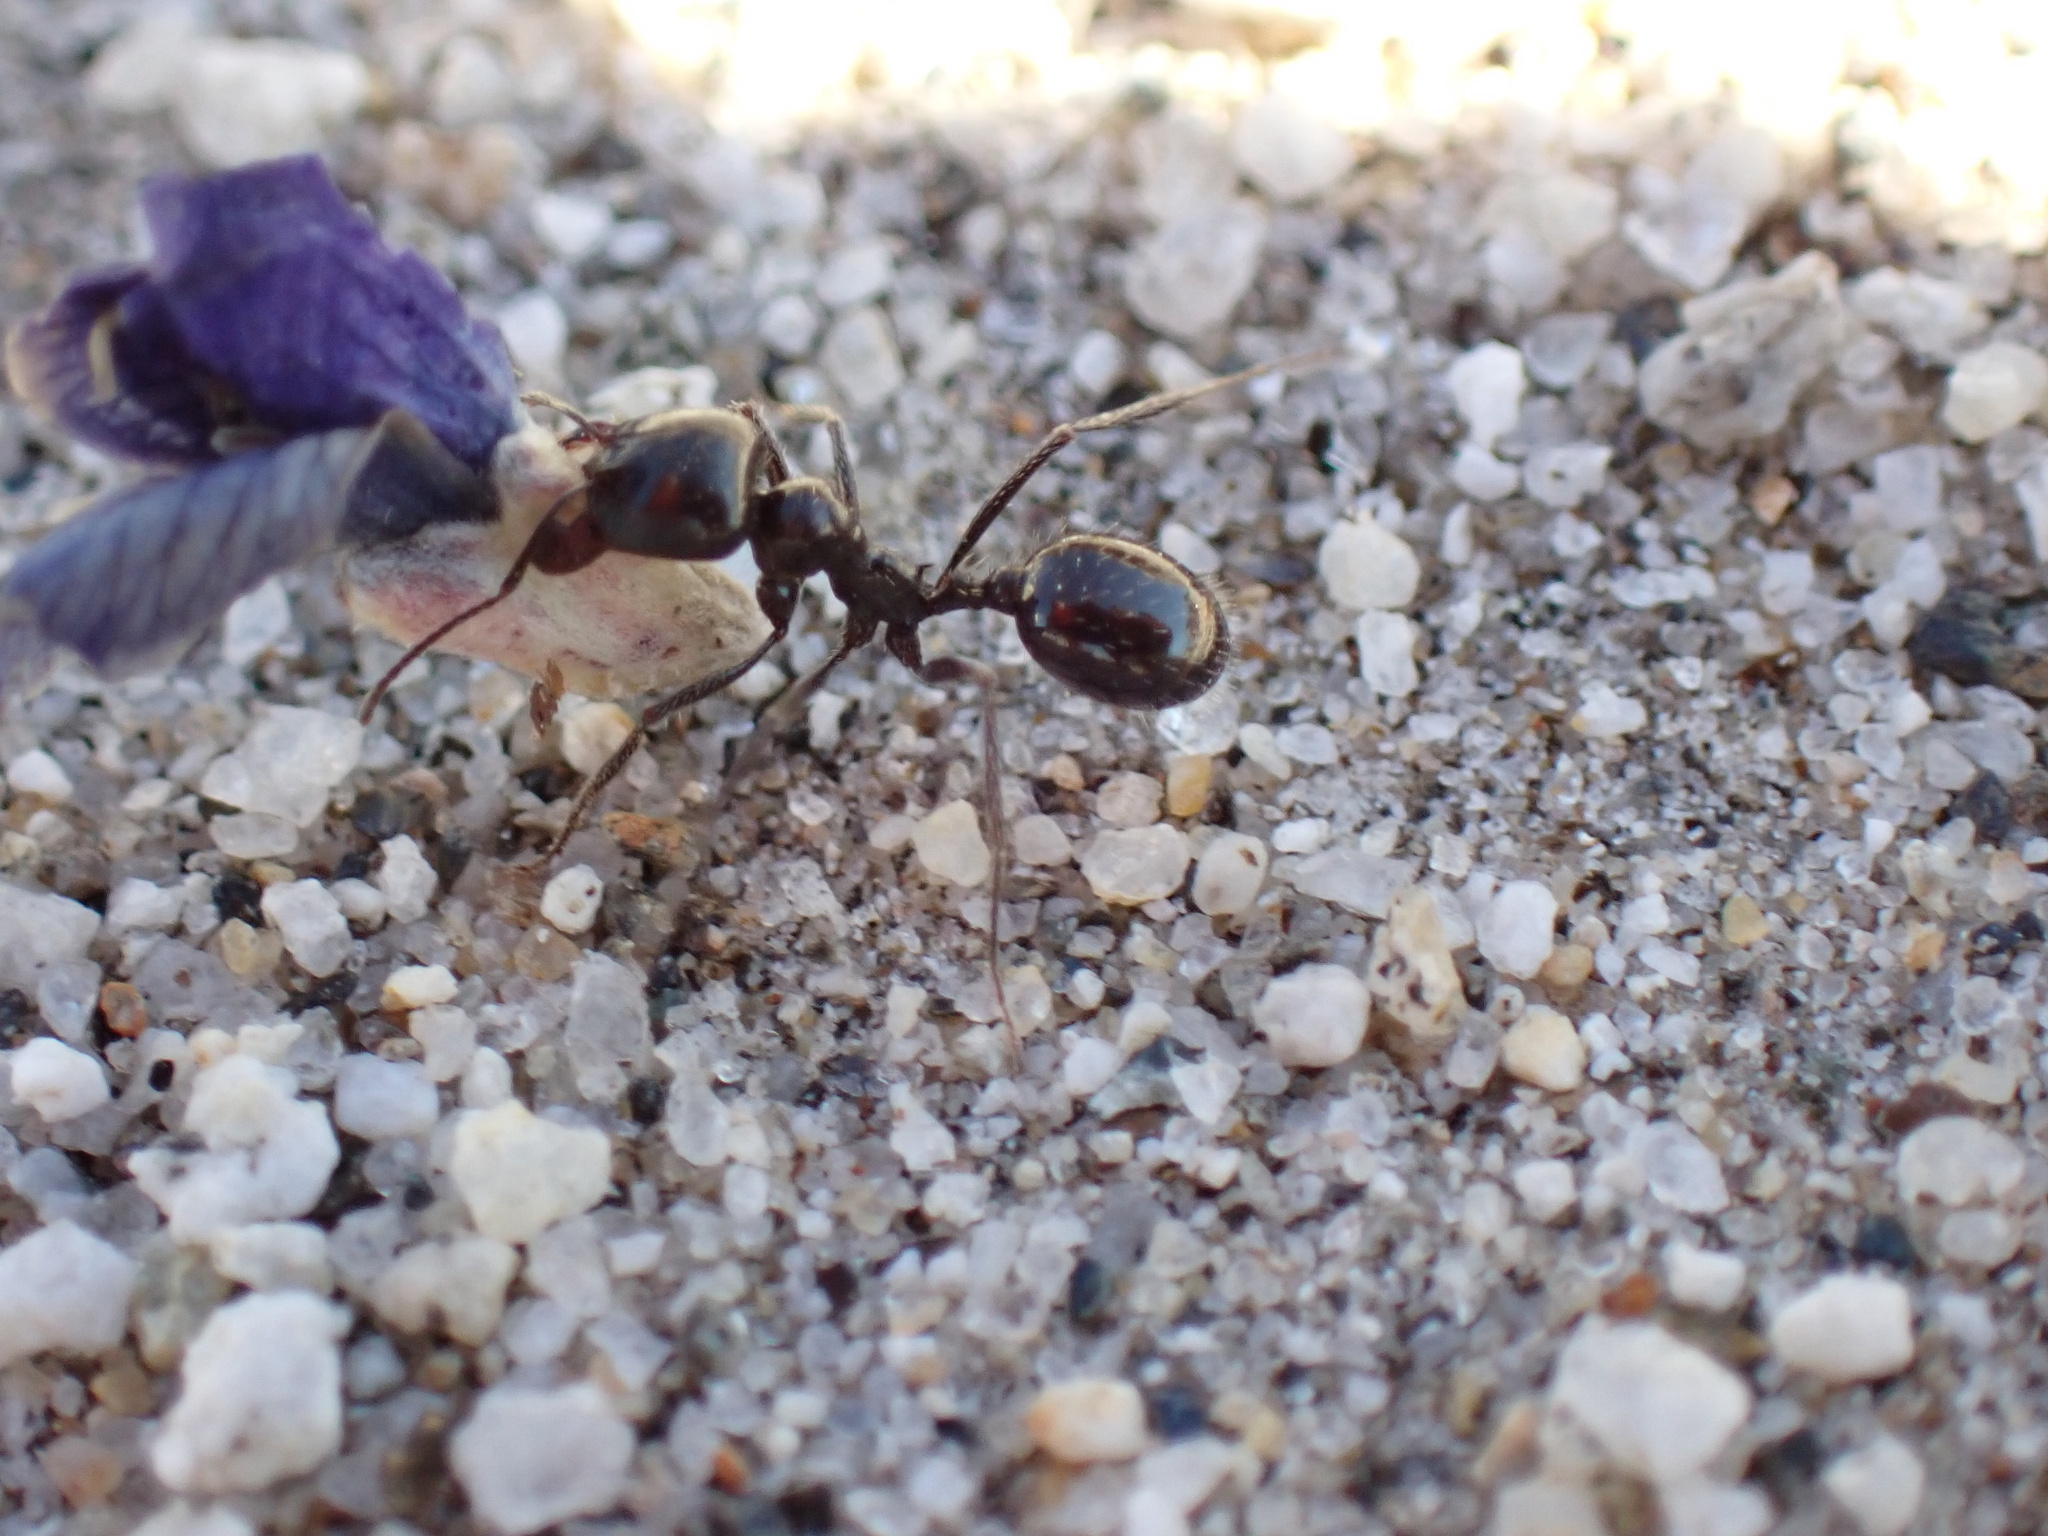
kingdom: Animalia
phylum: Arthropoda
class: Insecta
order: Hymenoptera
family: Formicidae
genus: Messor
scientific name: Messor pergandei
